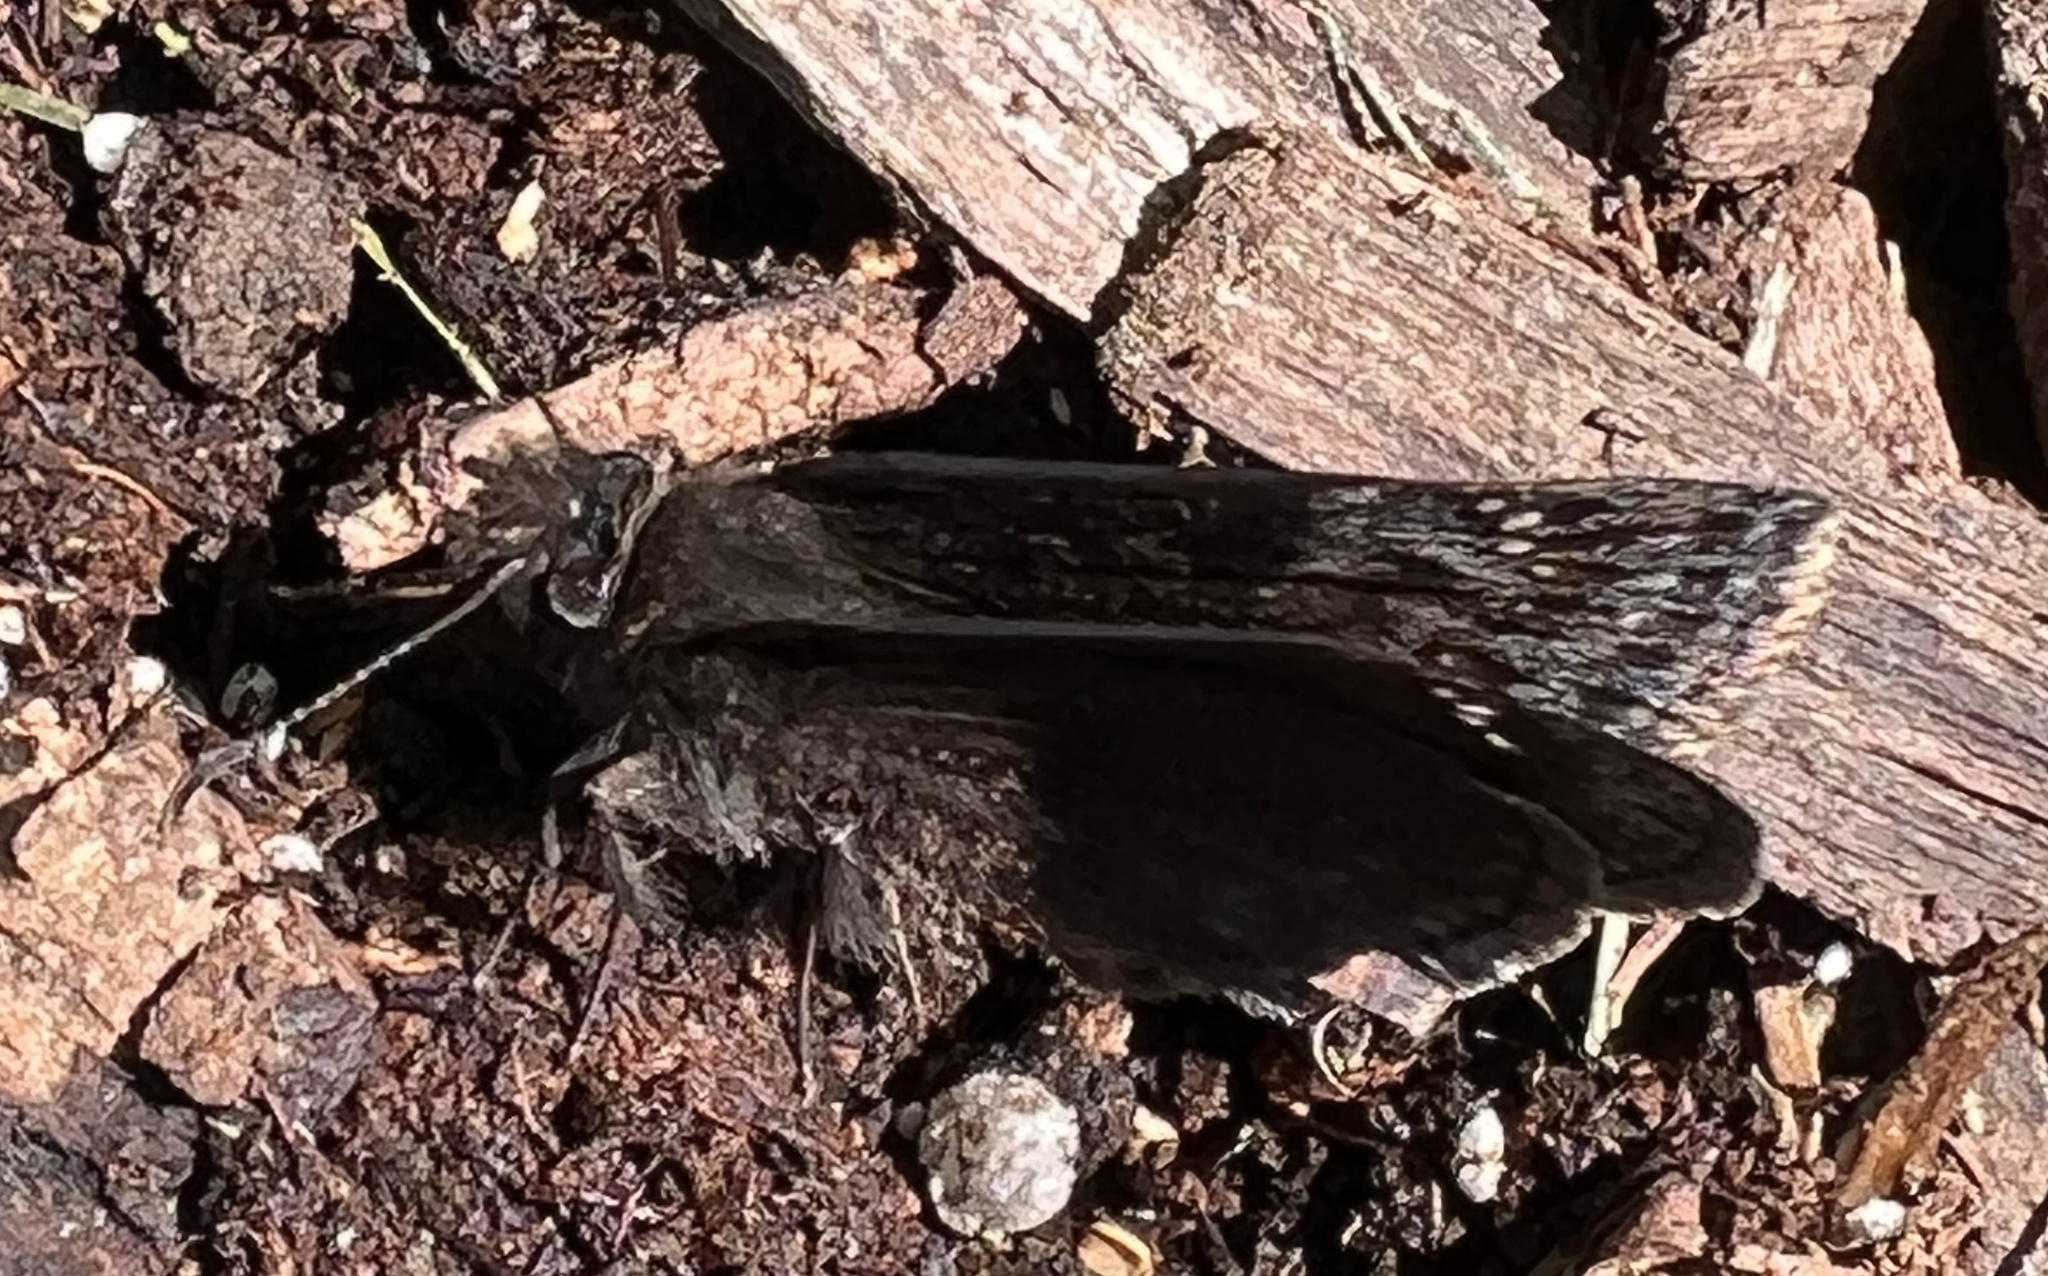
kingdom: Animalia
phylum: Arthropoda
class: Insecta
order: Lepidoptera
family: Hesperiidae
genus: Erynnis
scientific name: Erynnis baptisiae
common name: Wild indigo duskywing
